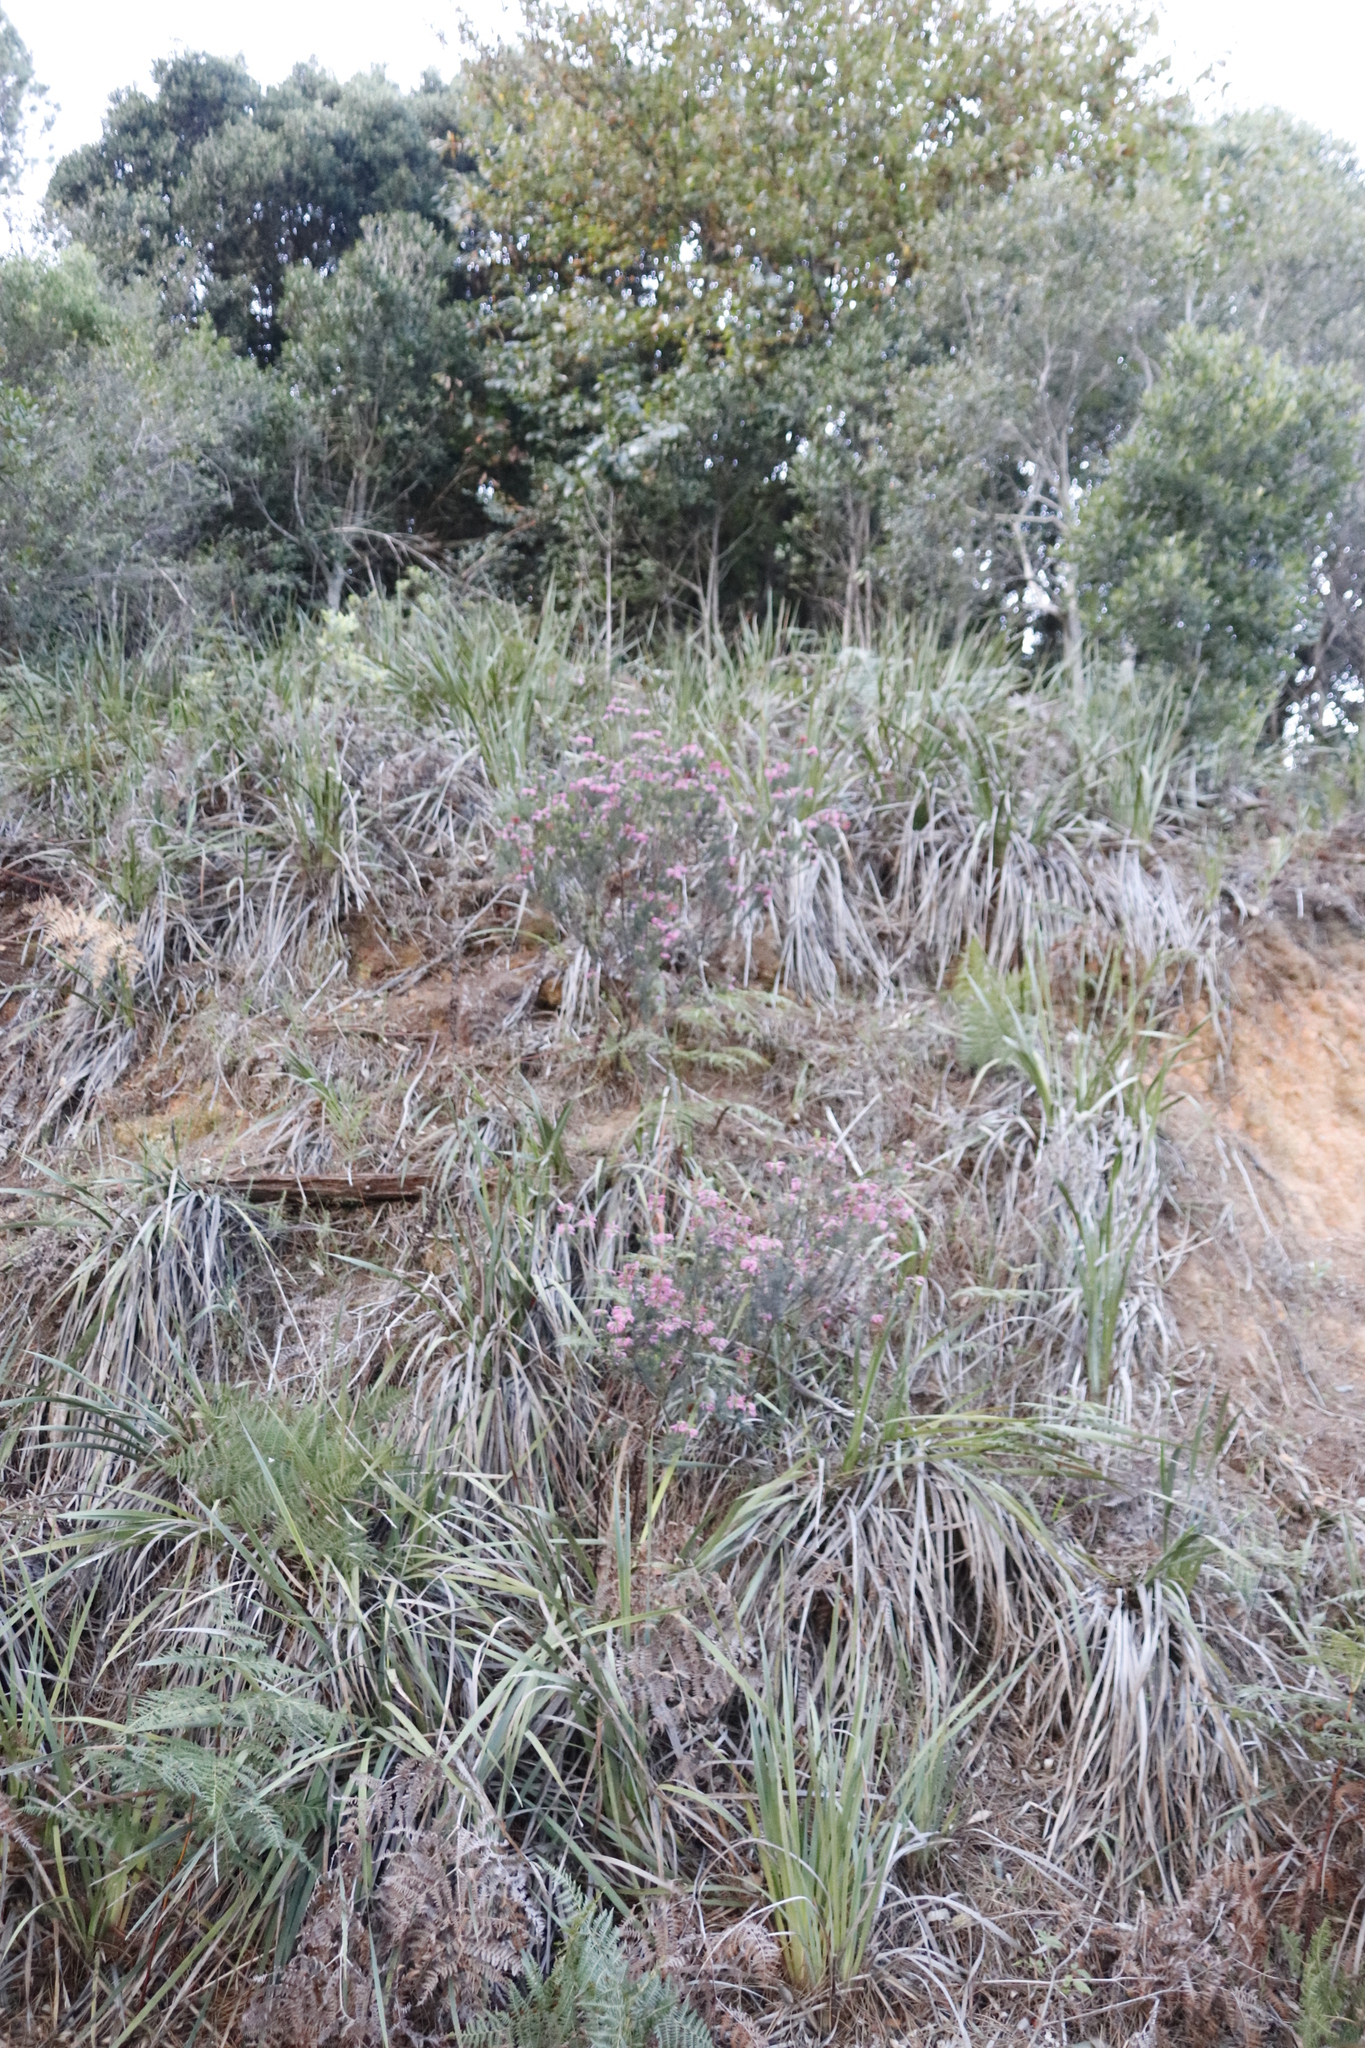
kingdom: Plantae
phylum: Tracheophyta
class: Magnoliopsida
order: Ericales
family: Ericaceae
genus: Erica
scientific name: Erica abietina
